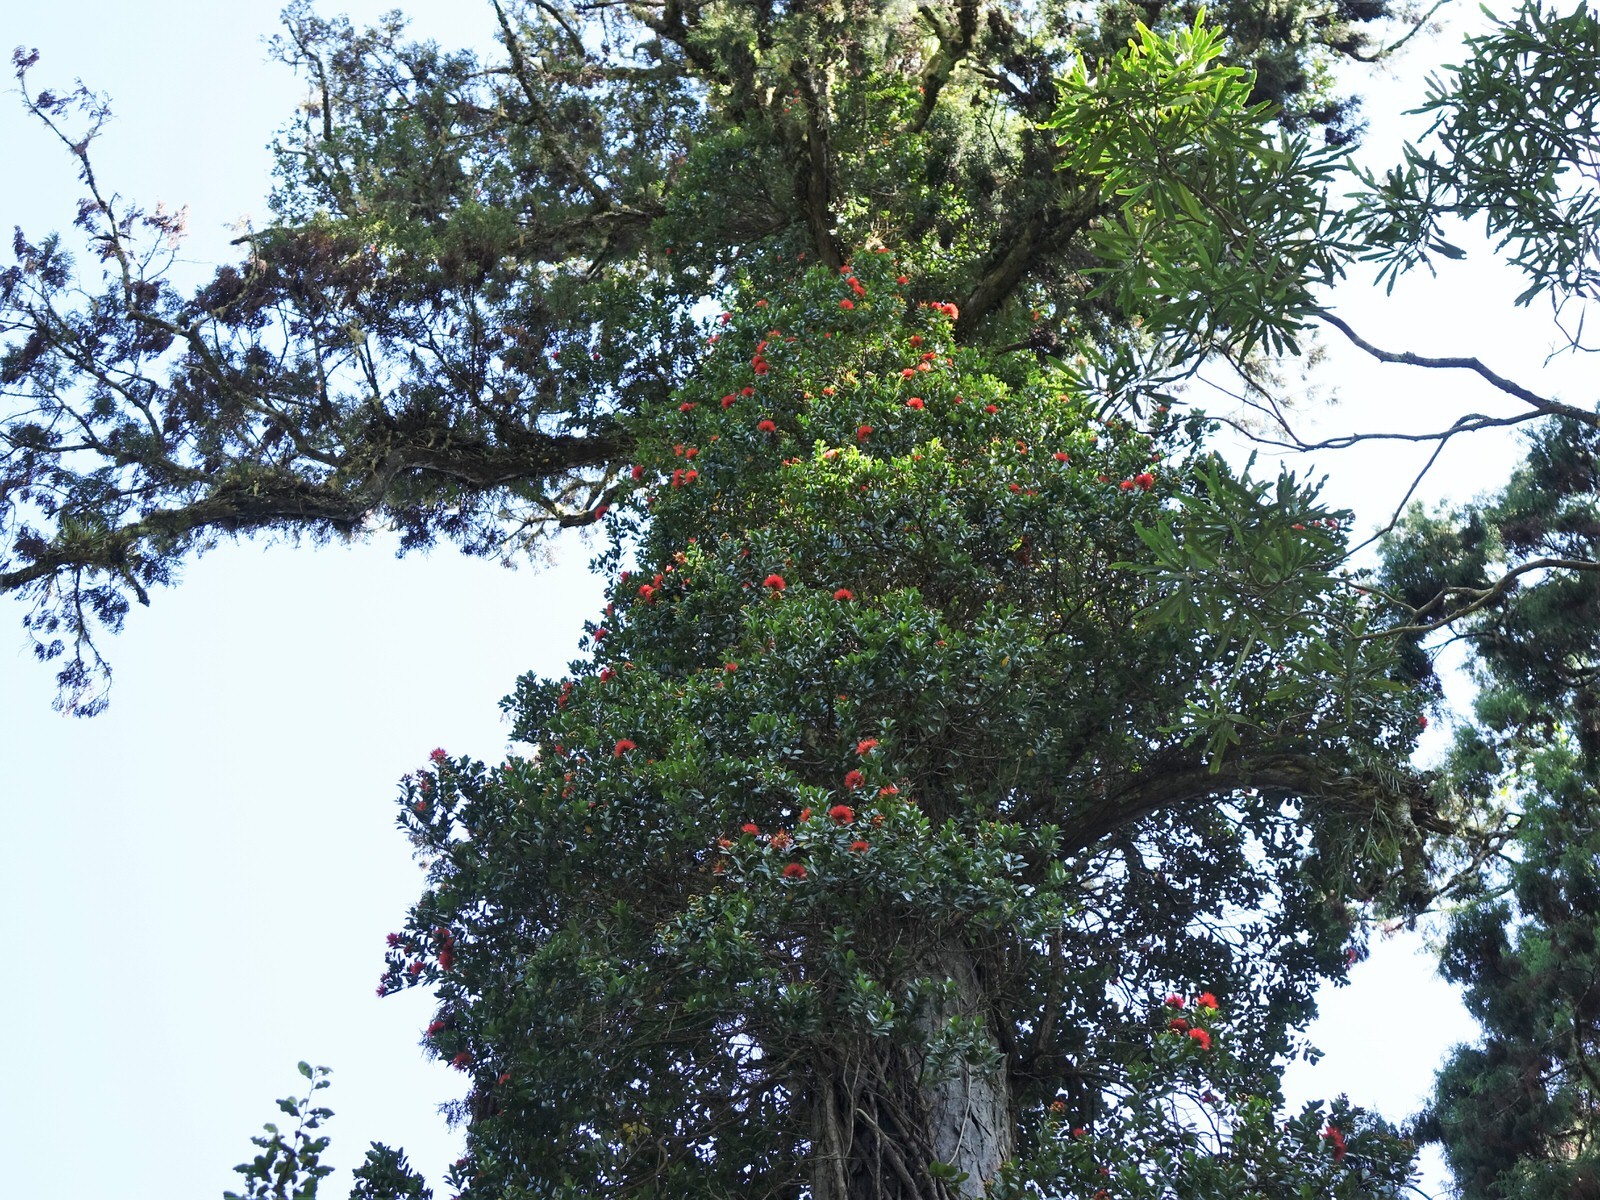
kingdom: Plantae
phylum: Tracheophyta
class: Magnoliopsida
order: Myrtales
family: Myrtaceae
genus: Metrosideros
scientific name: Metrosideros fulgens
